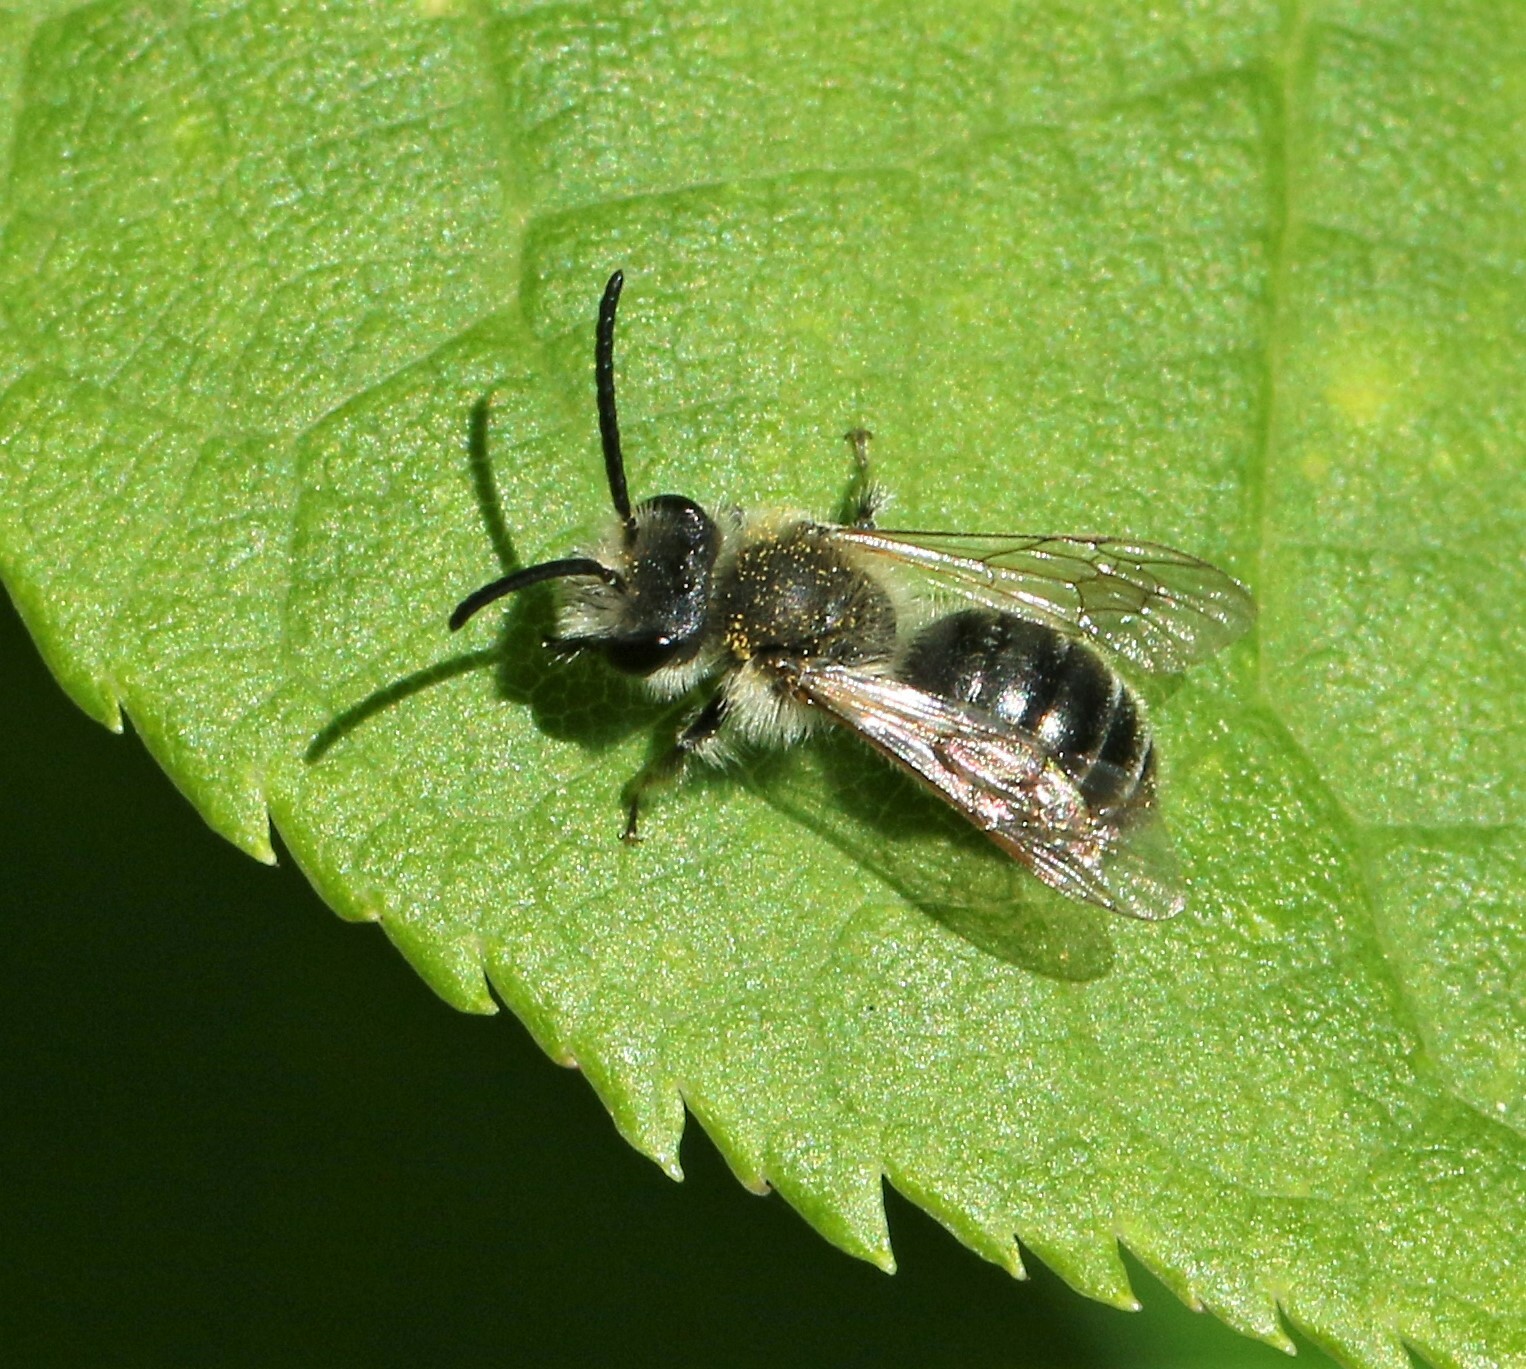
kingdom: Animalia
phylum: Arthropoda
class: Insecta
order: Hymenoptera
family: Andrenidae
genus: Andrena
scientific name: Andrena rufosignata
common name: Brown-fovea miner
